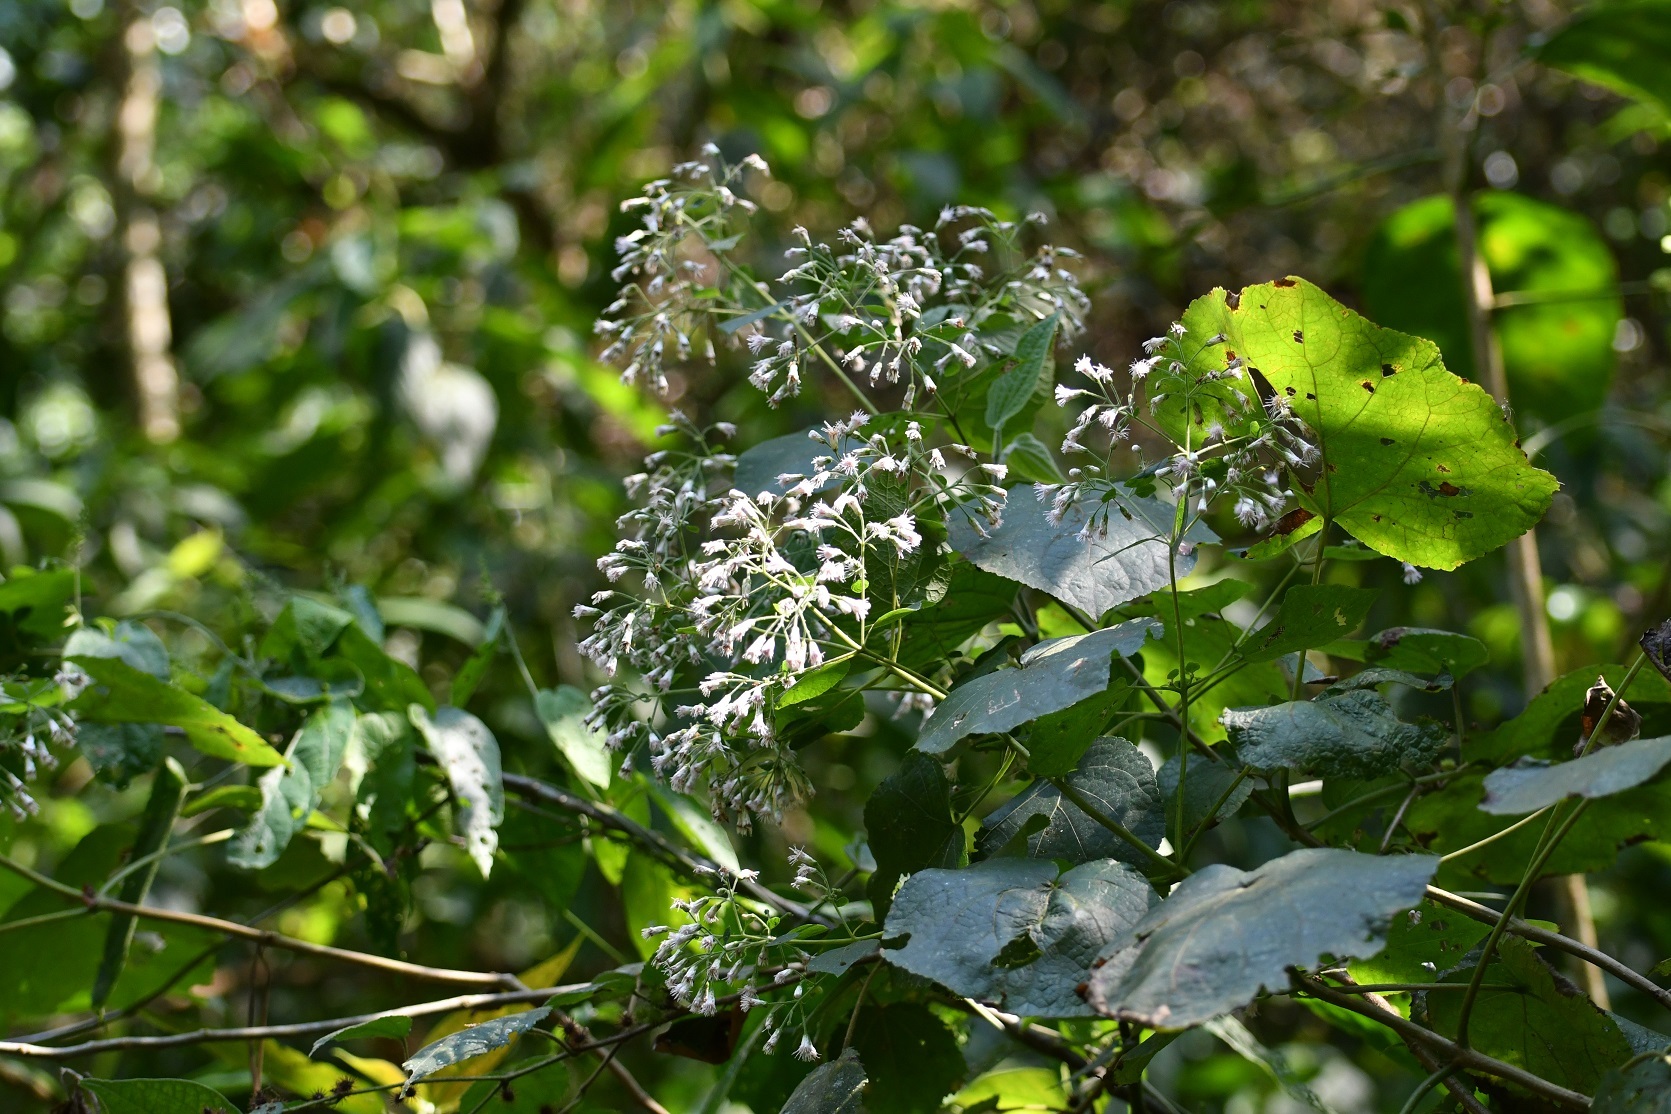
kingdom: Plantae
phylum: Tracheophyta
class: Magnoliopsida
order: Asterales
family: Asteraceae
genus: Peteravenia
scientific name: Peteravenia schultzii
